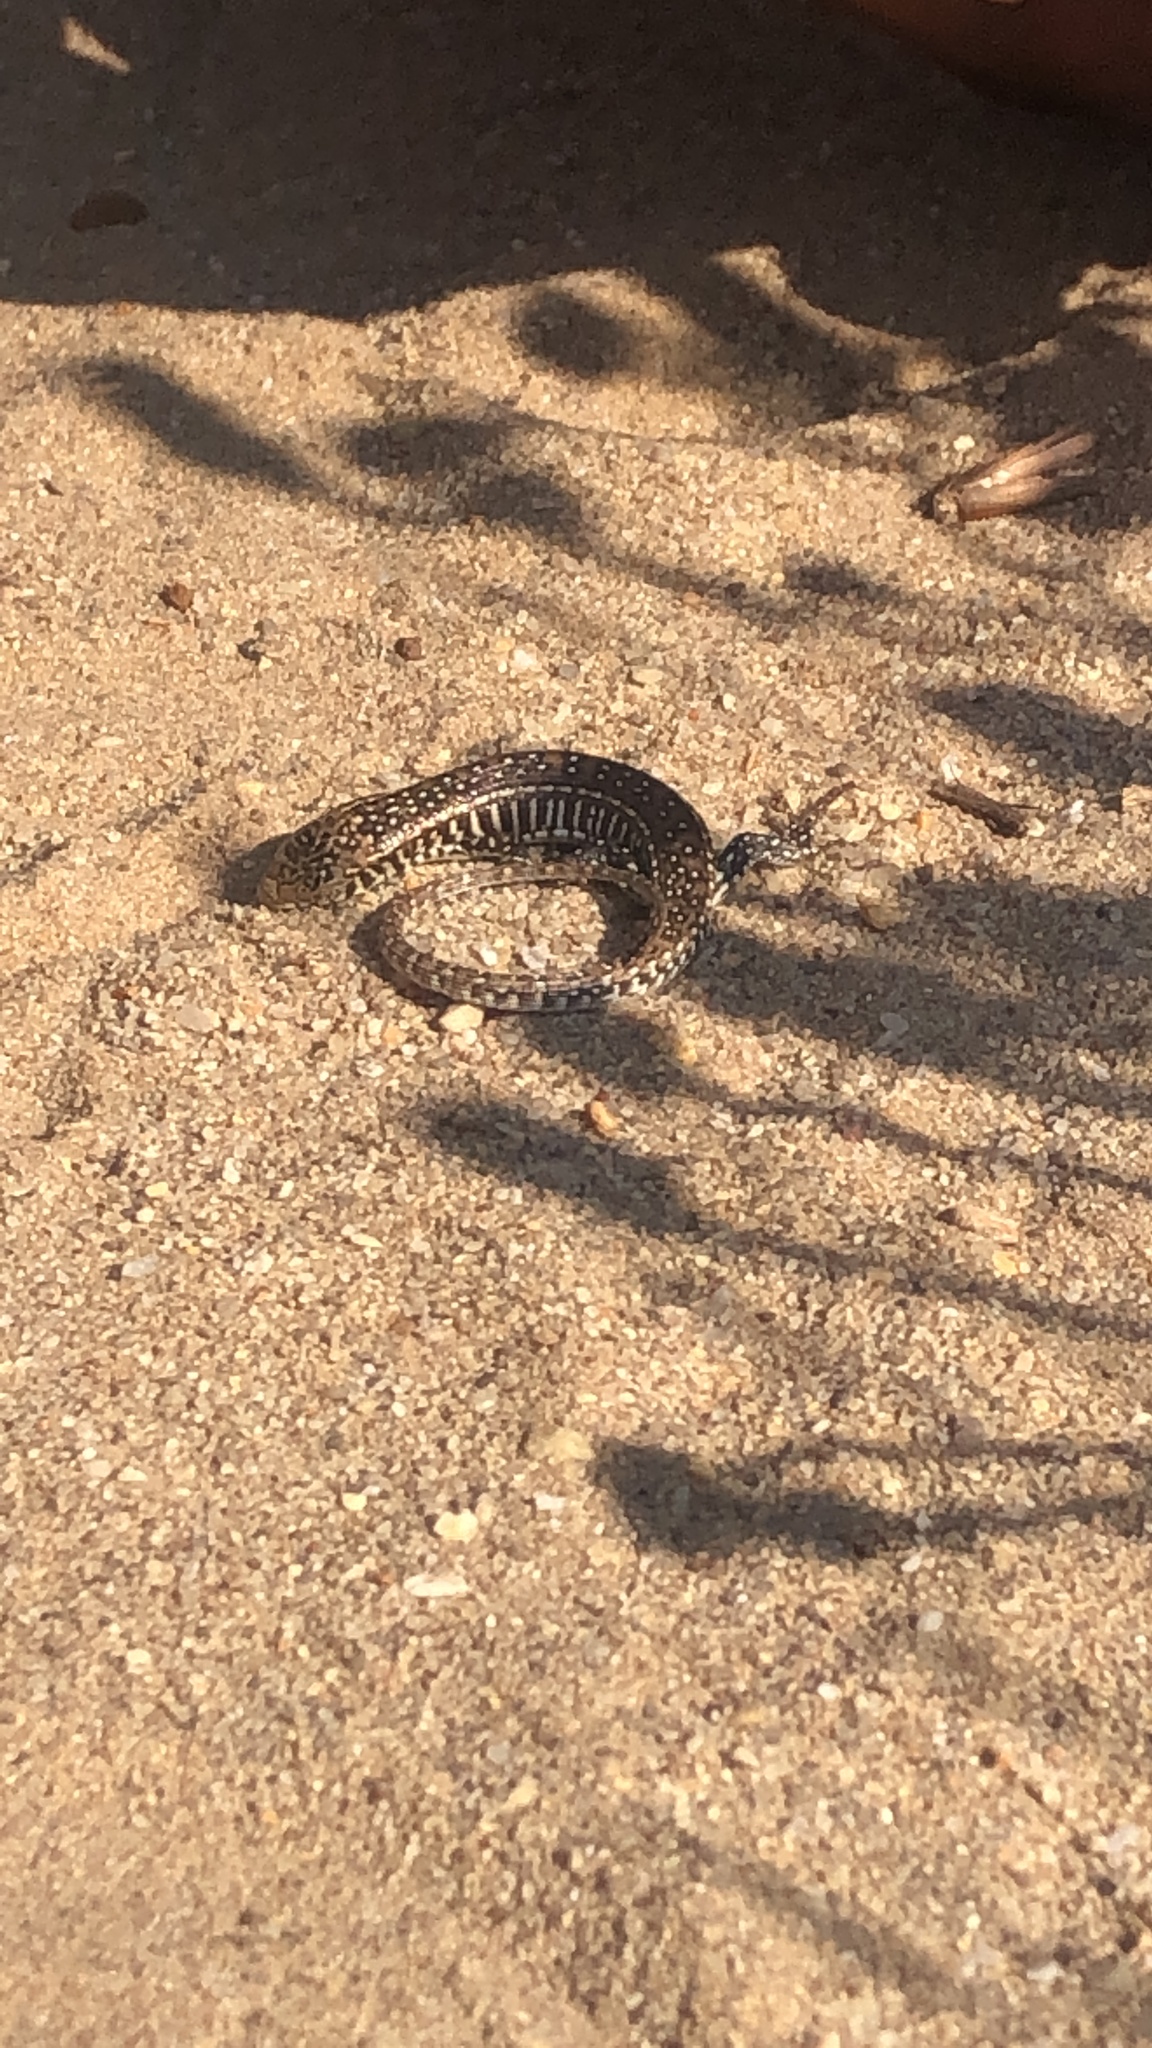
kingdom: Animalia
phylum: Chordata
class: Squamata
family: Gerrhosauridae
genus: Gerrhosaurus
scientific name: Gerrhosaurus flavigularis
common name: Yellow-throated plated lizard
